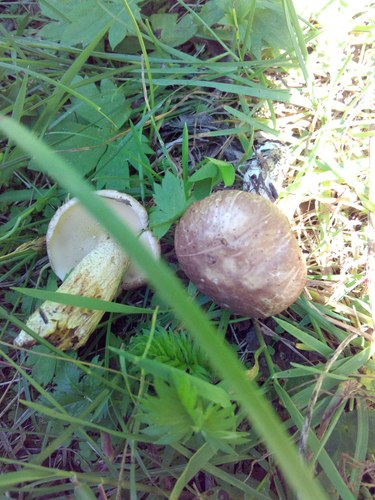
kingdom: Fungi
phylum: Basidiomycota
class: Agaricomycetes
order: Boletales
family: Suillaceae
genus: Suillus
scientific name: Suillus placidus
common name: Slippery white bolete
